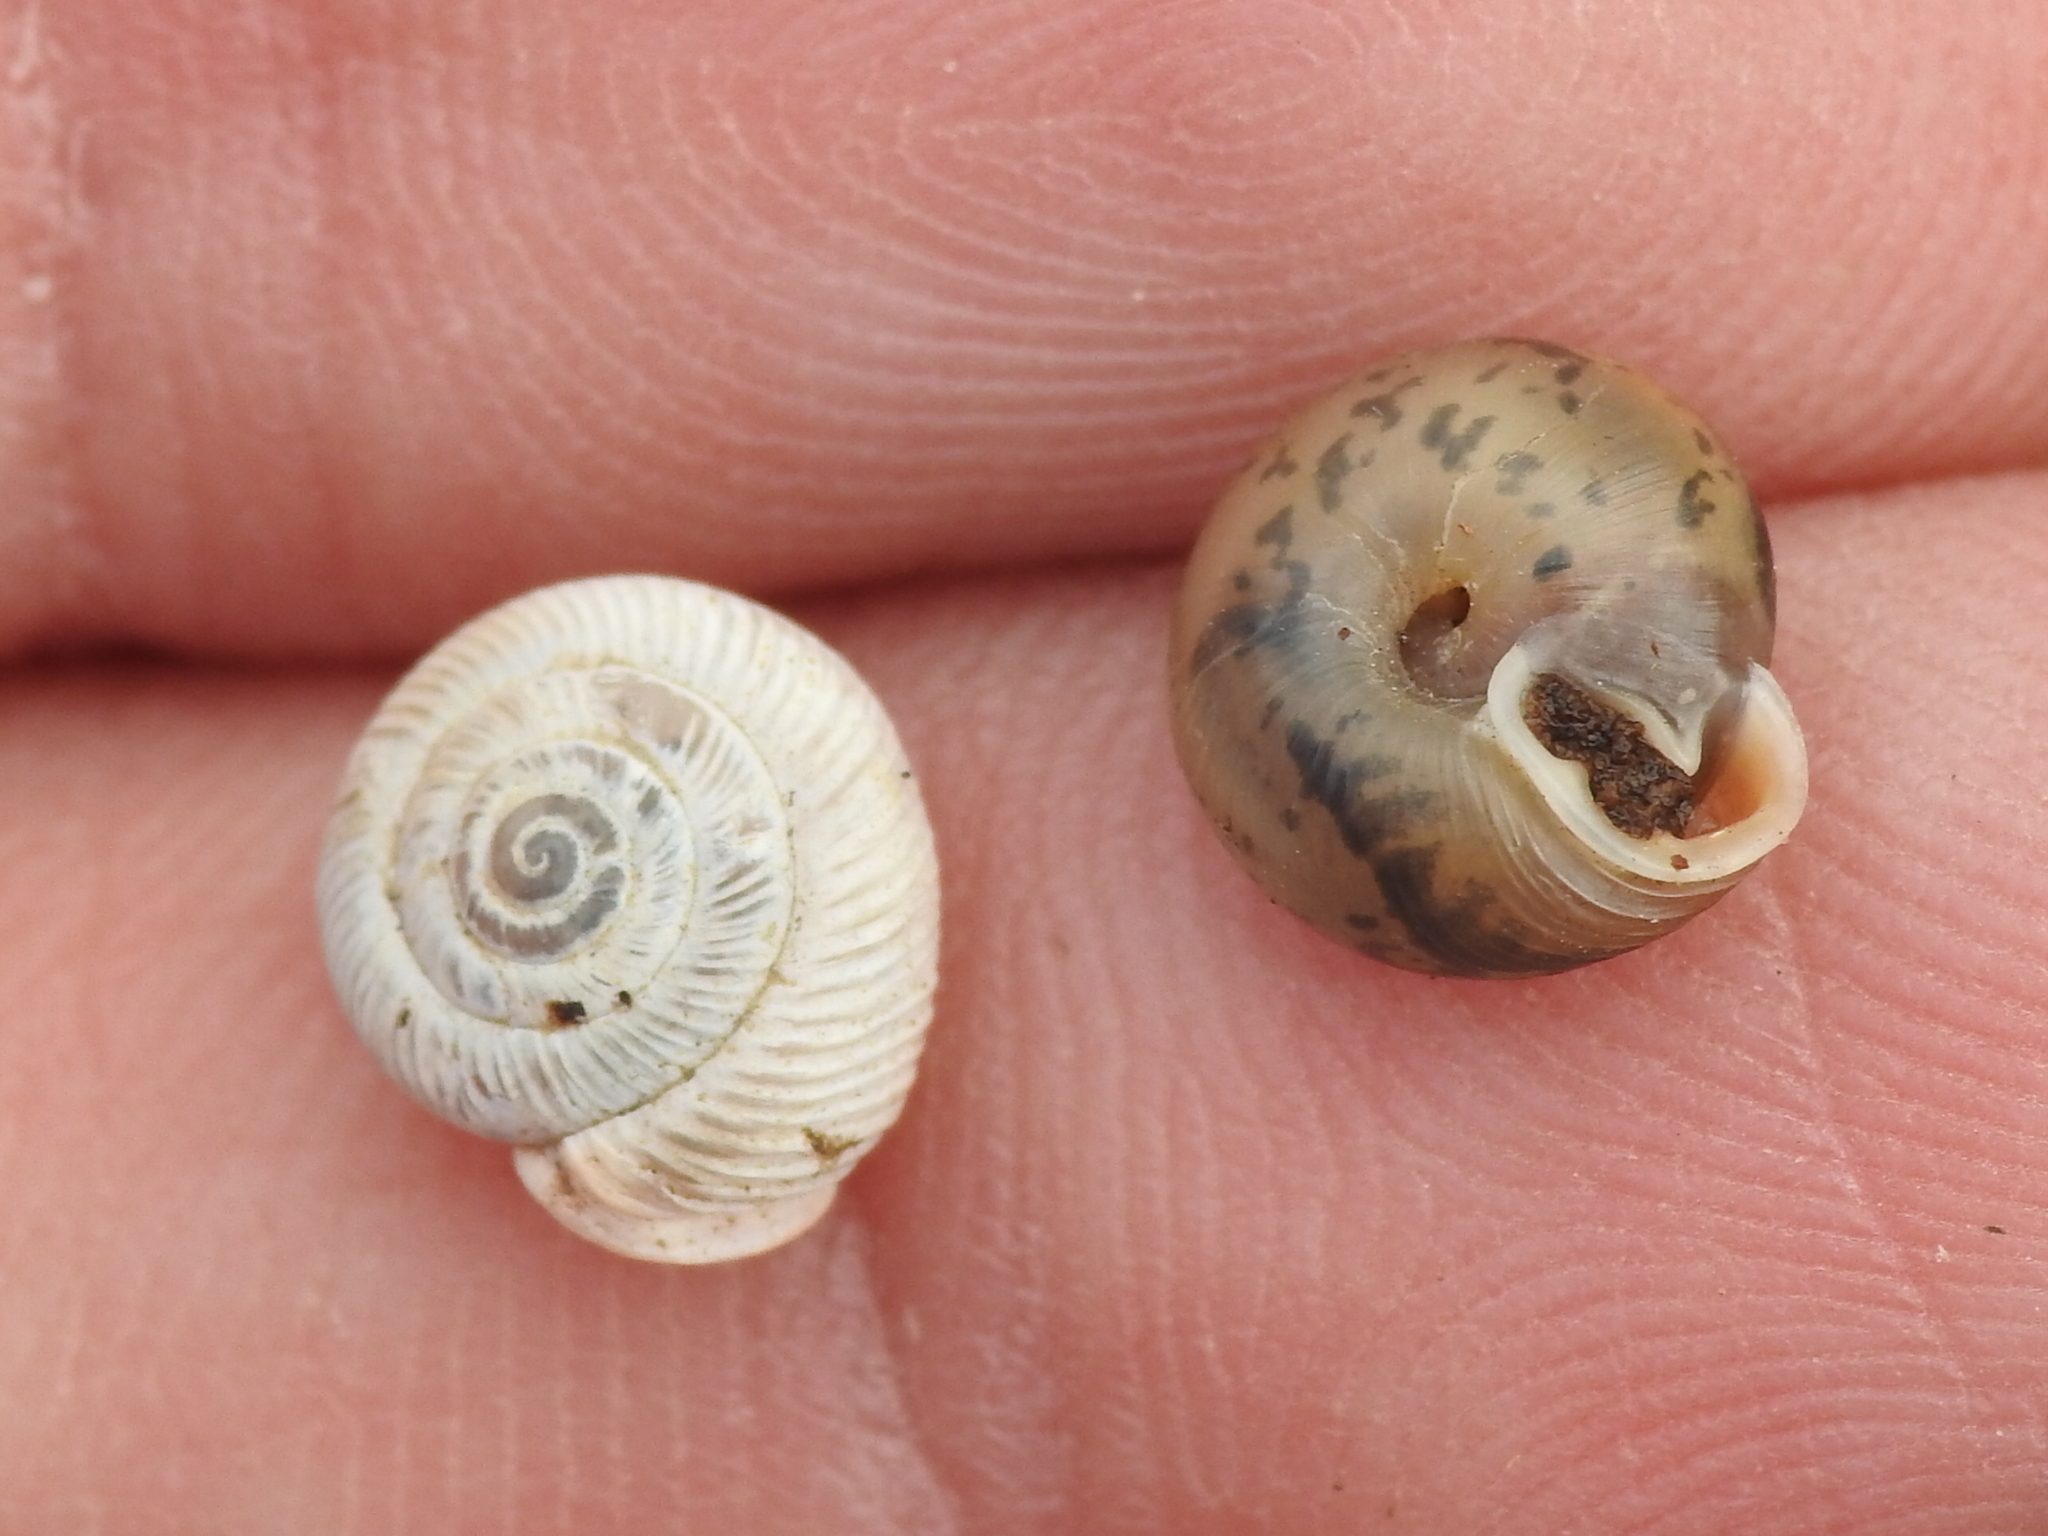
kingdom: Animalia
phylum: Mollusca
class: Gastropoda
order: Stylommatophora
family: Polygyridae
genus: Linisa
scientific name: Linisa texasiana
